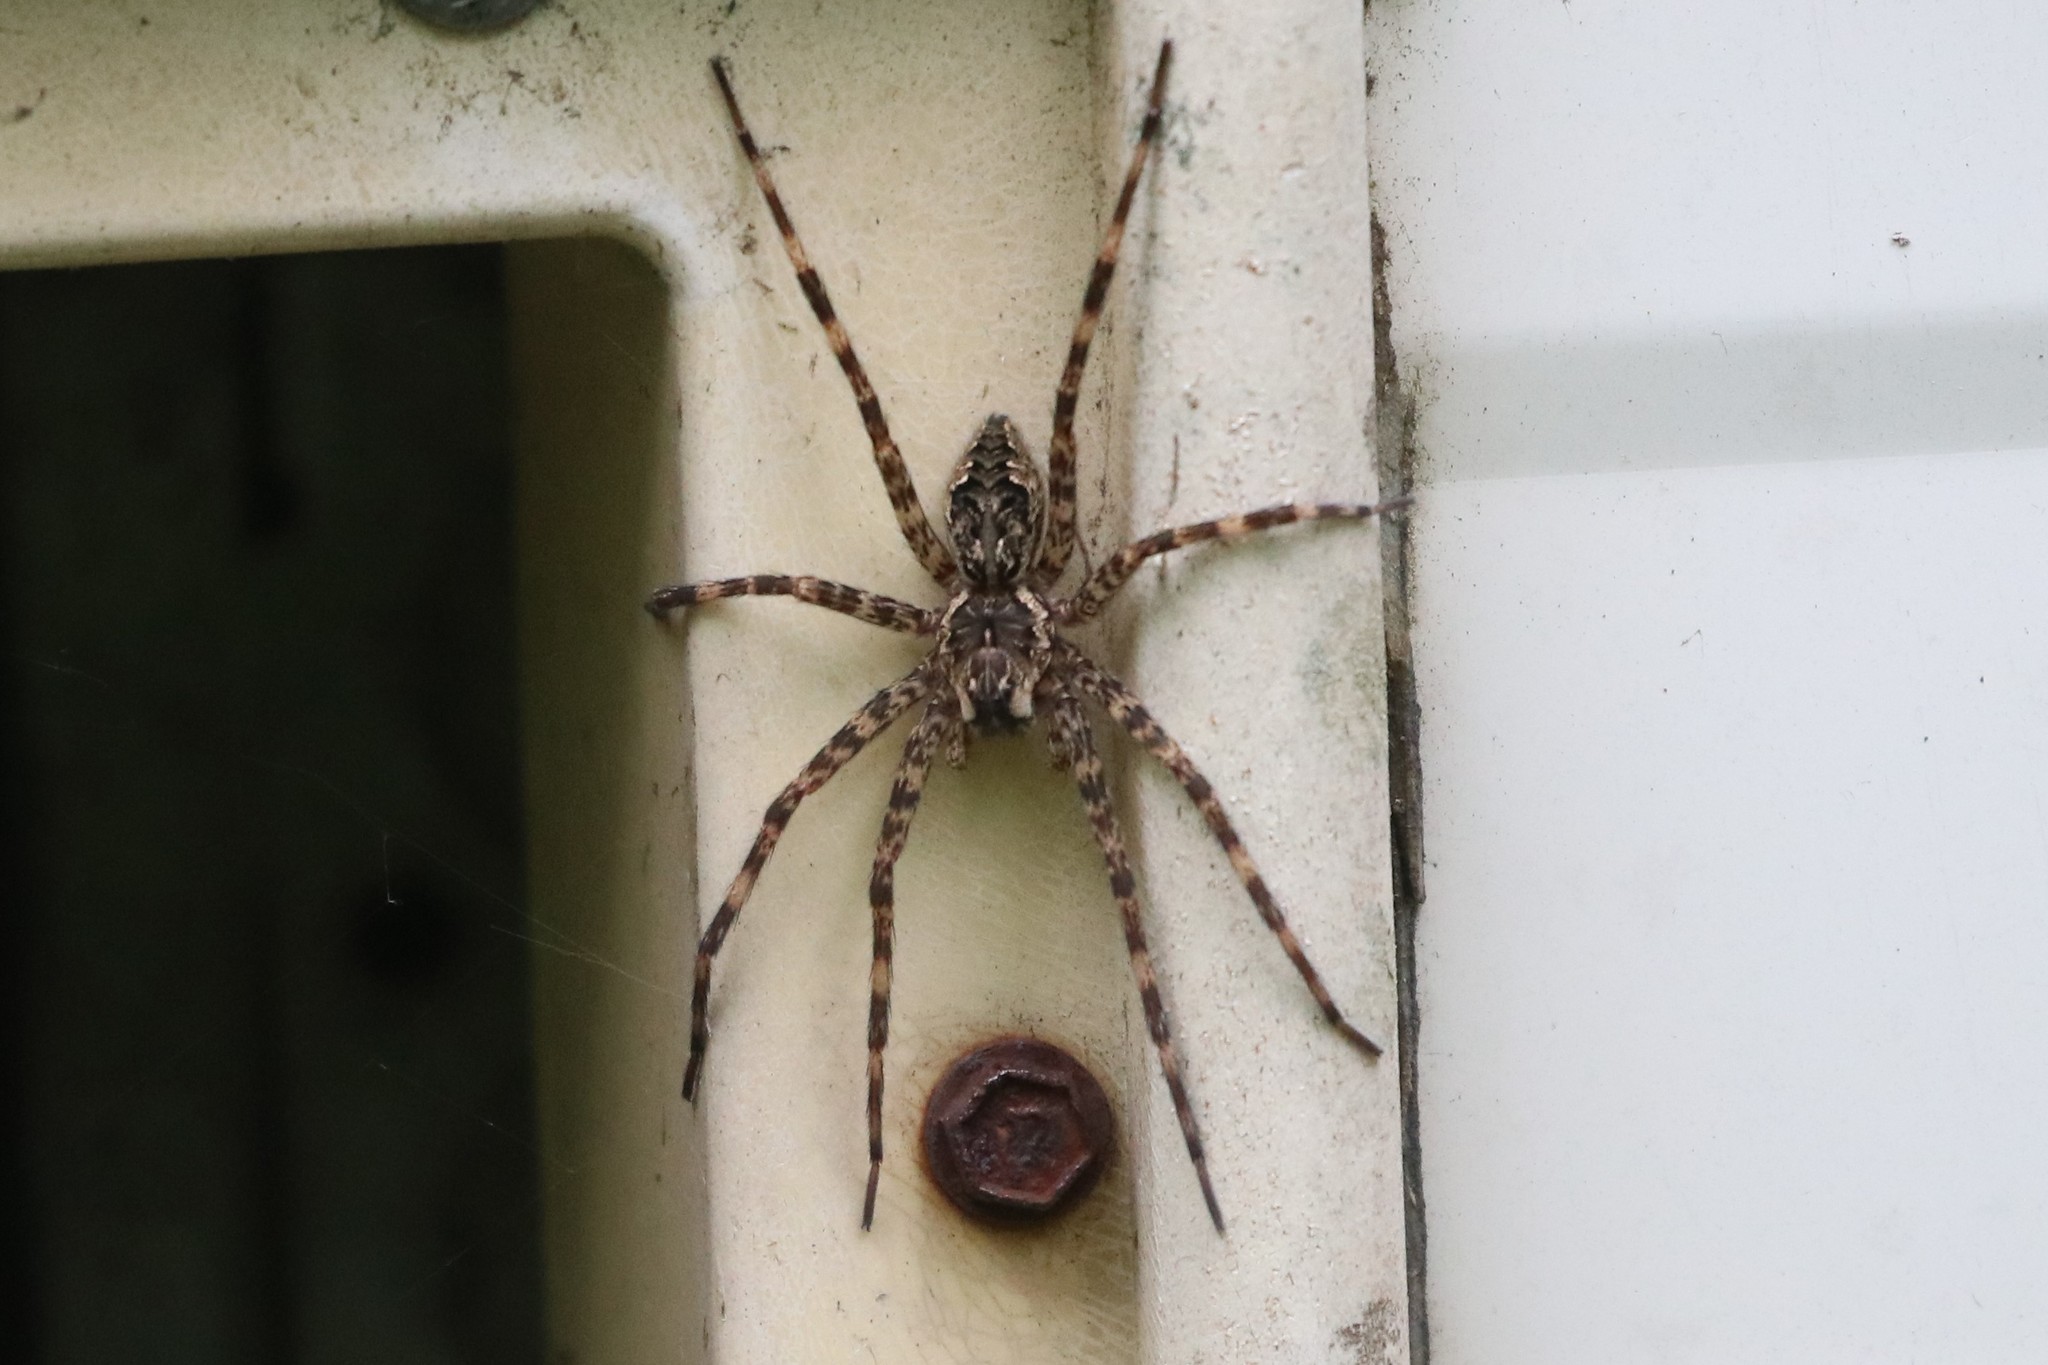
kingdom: Animalia
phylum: Arthropoda
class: Arachnida
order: Araneae
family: Pisauridae
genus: Dolomedes
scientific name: Dolomedes tenebrosus
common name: Dark fishing spider
